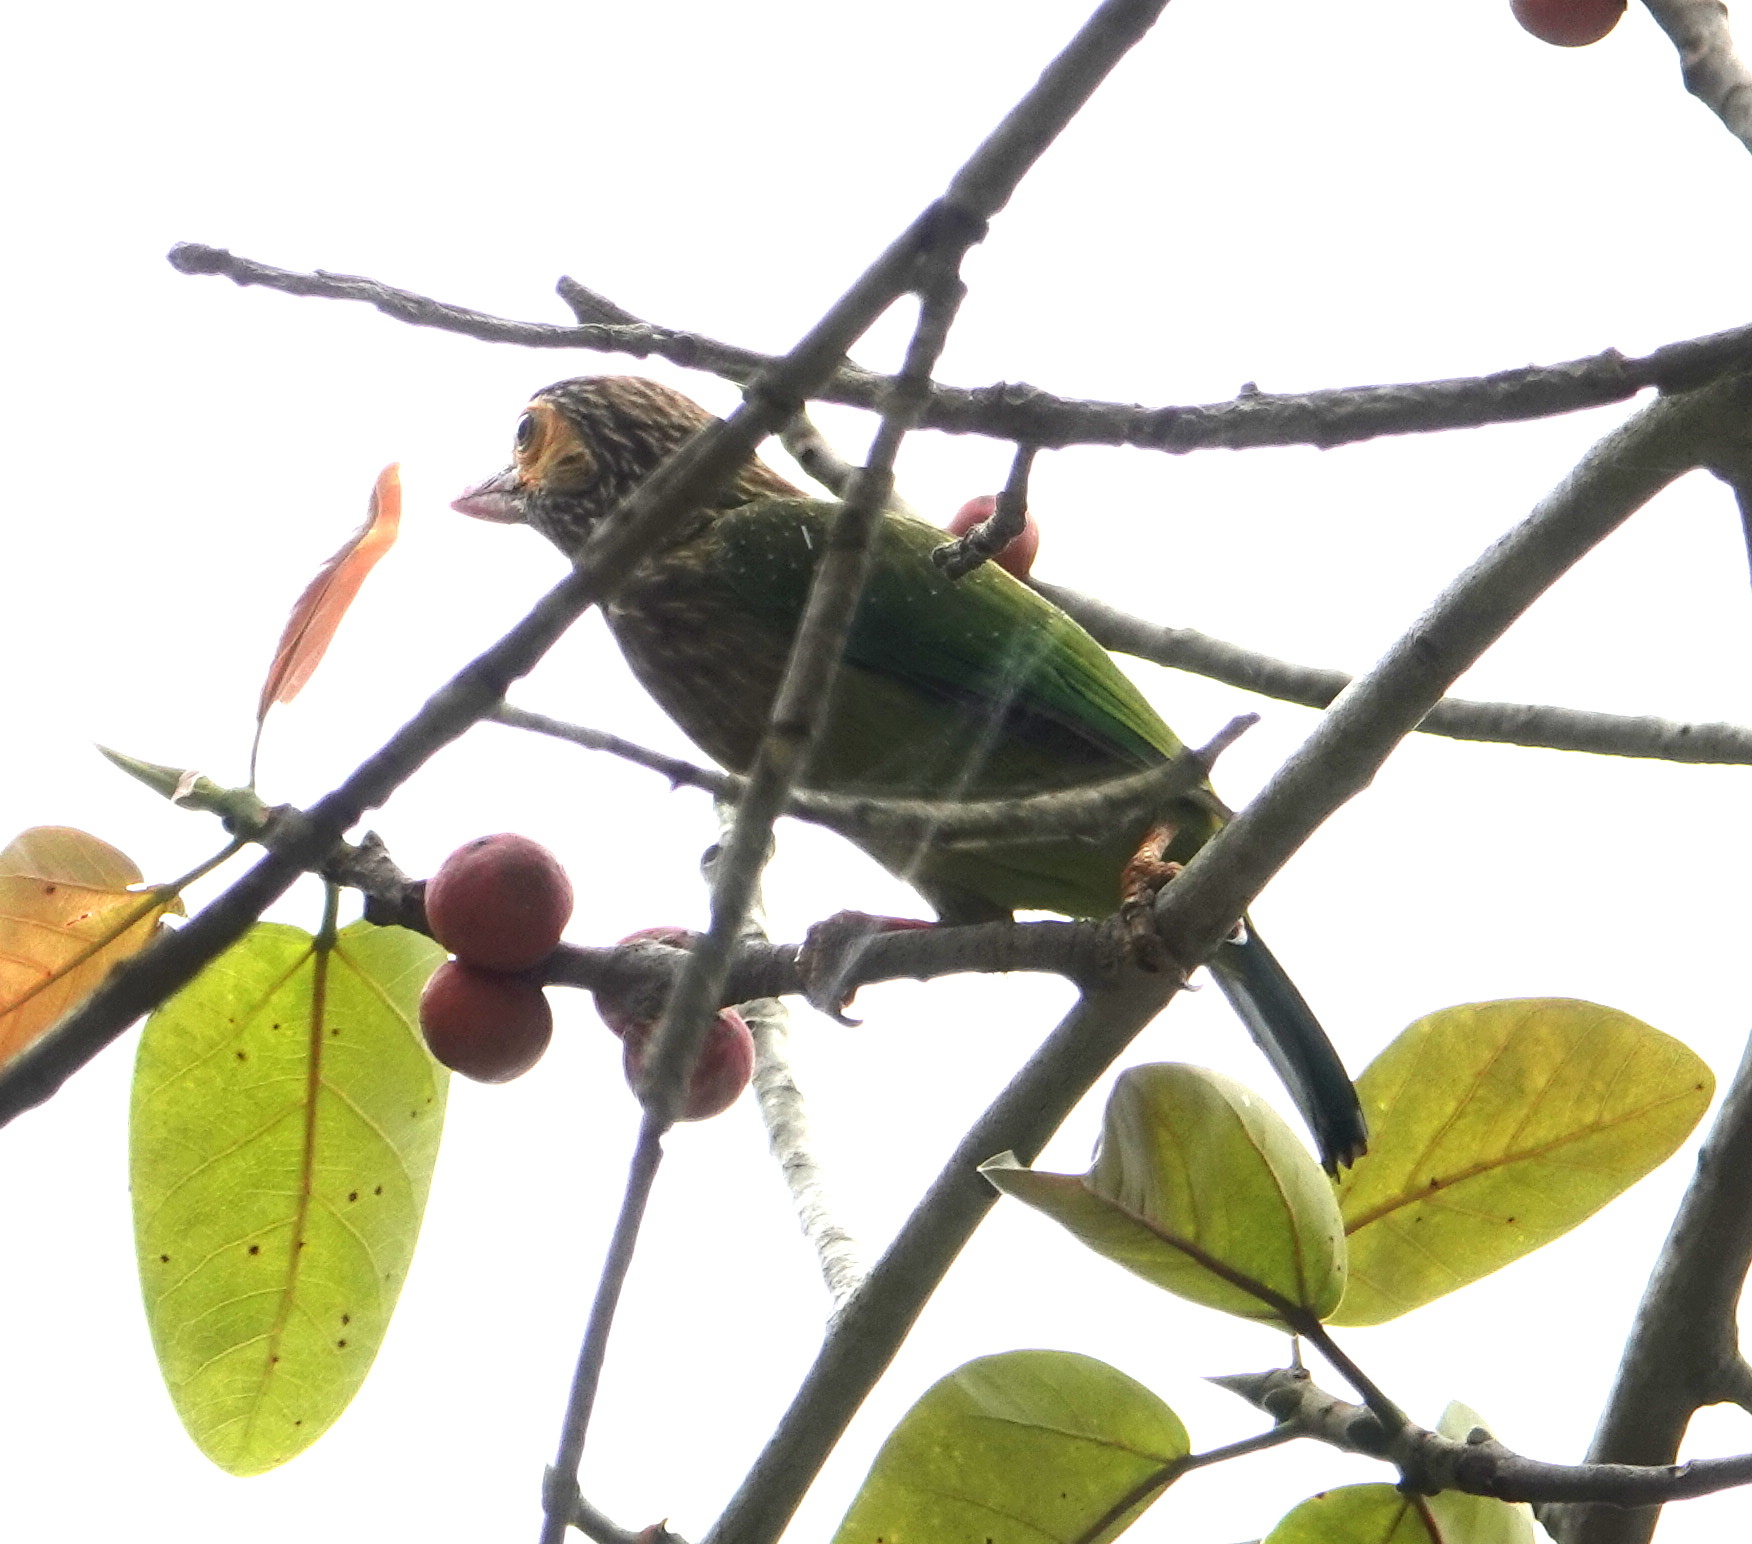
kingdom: Animalia
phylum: Chordata
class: Aves
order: Piciformes
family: Megalaimidae
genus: Psilopogon
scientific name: Psilopogon zeylanicus
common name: Brown-headed barbet
